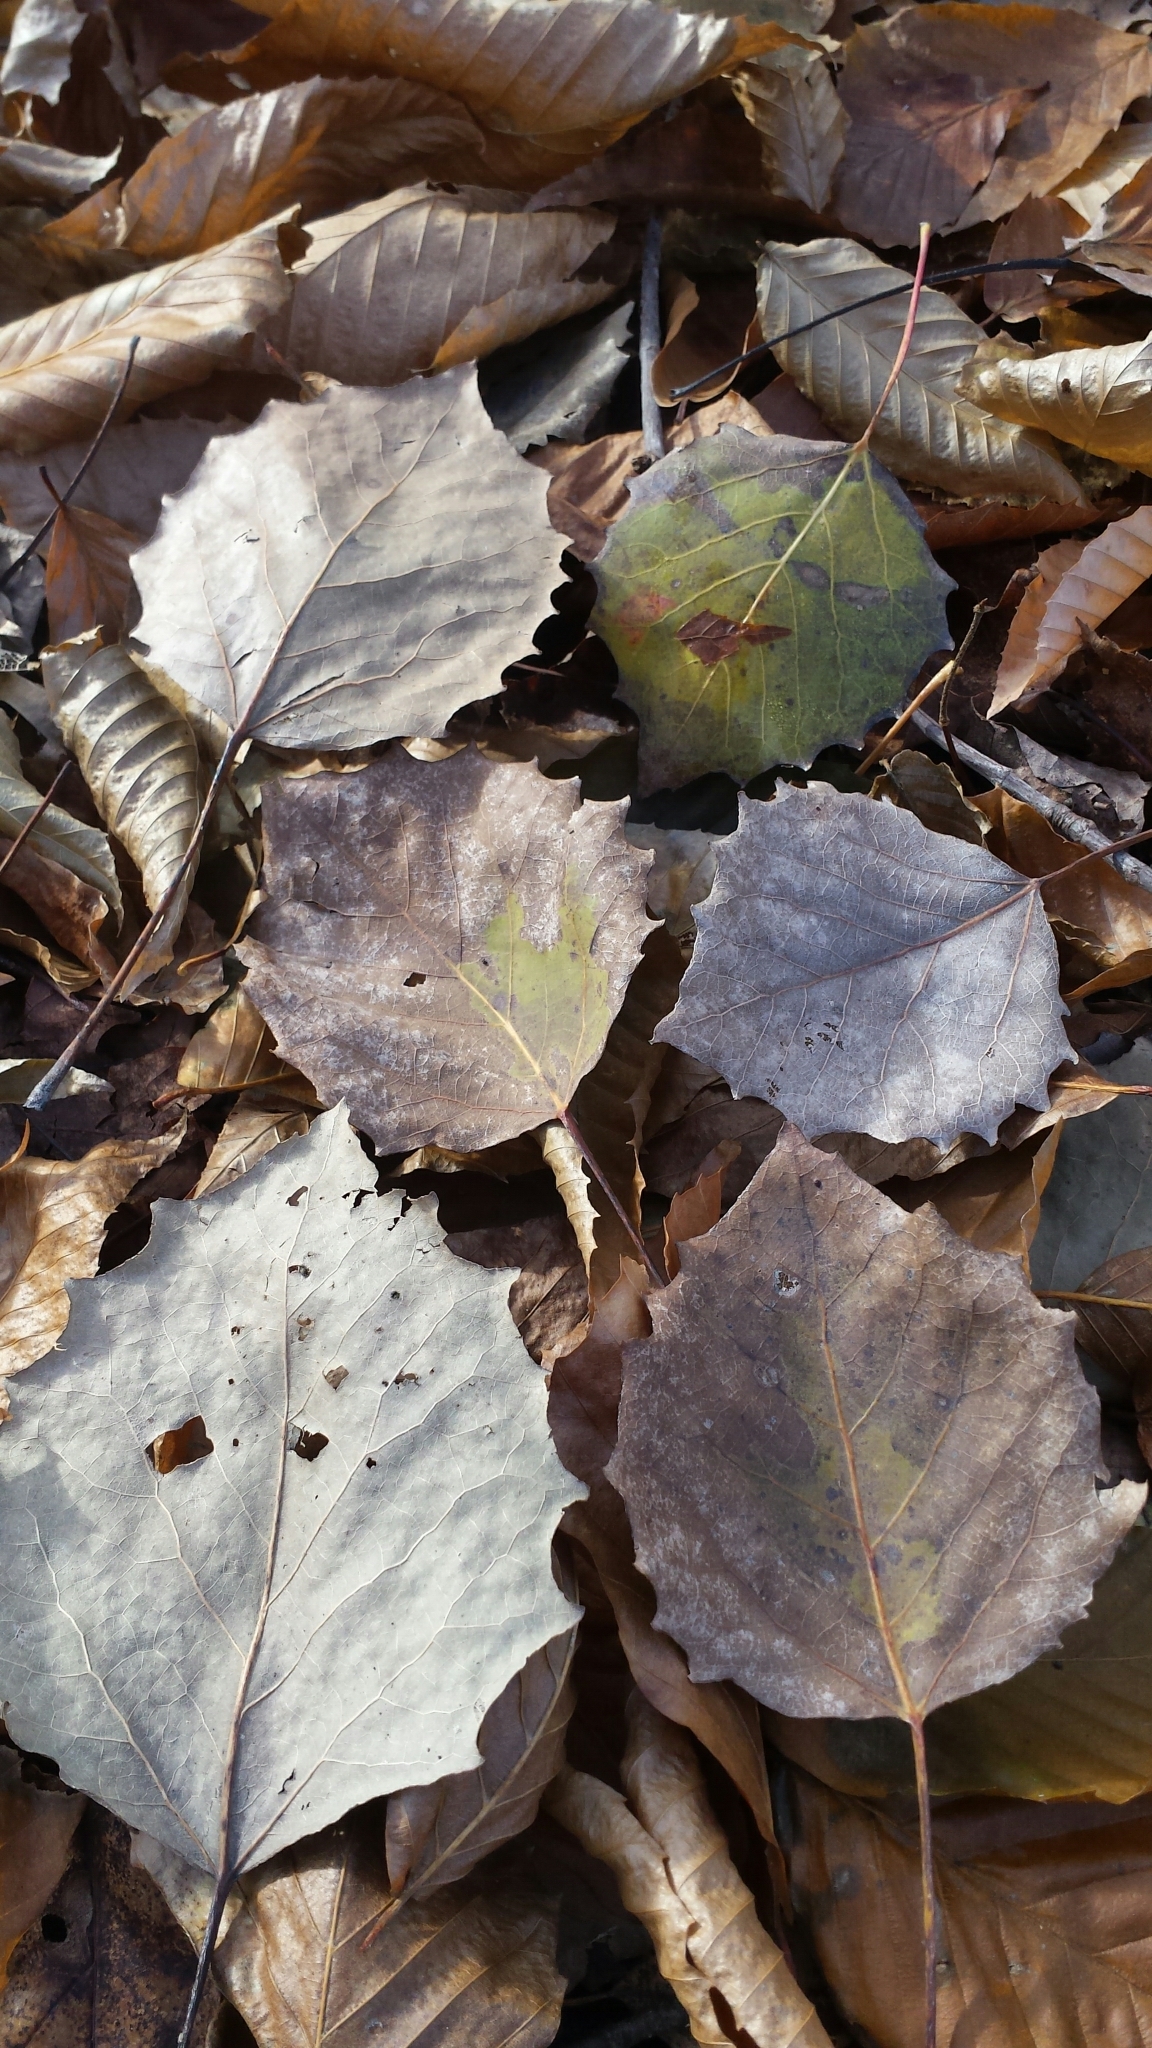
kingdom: Plantae
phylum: Tracheophyta
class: Magnoliopsida
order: Malpighiales
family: Salicaceae
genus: Populus
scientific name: Populus grandidentata
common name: Bigtooth aspen
